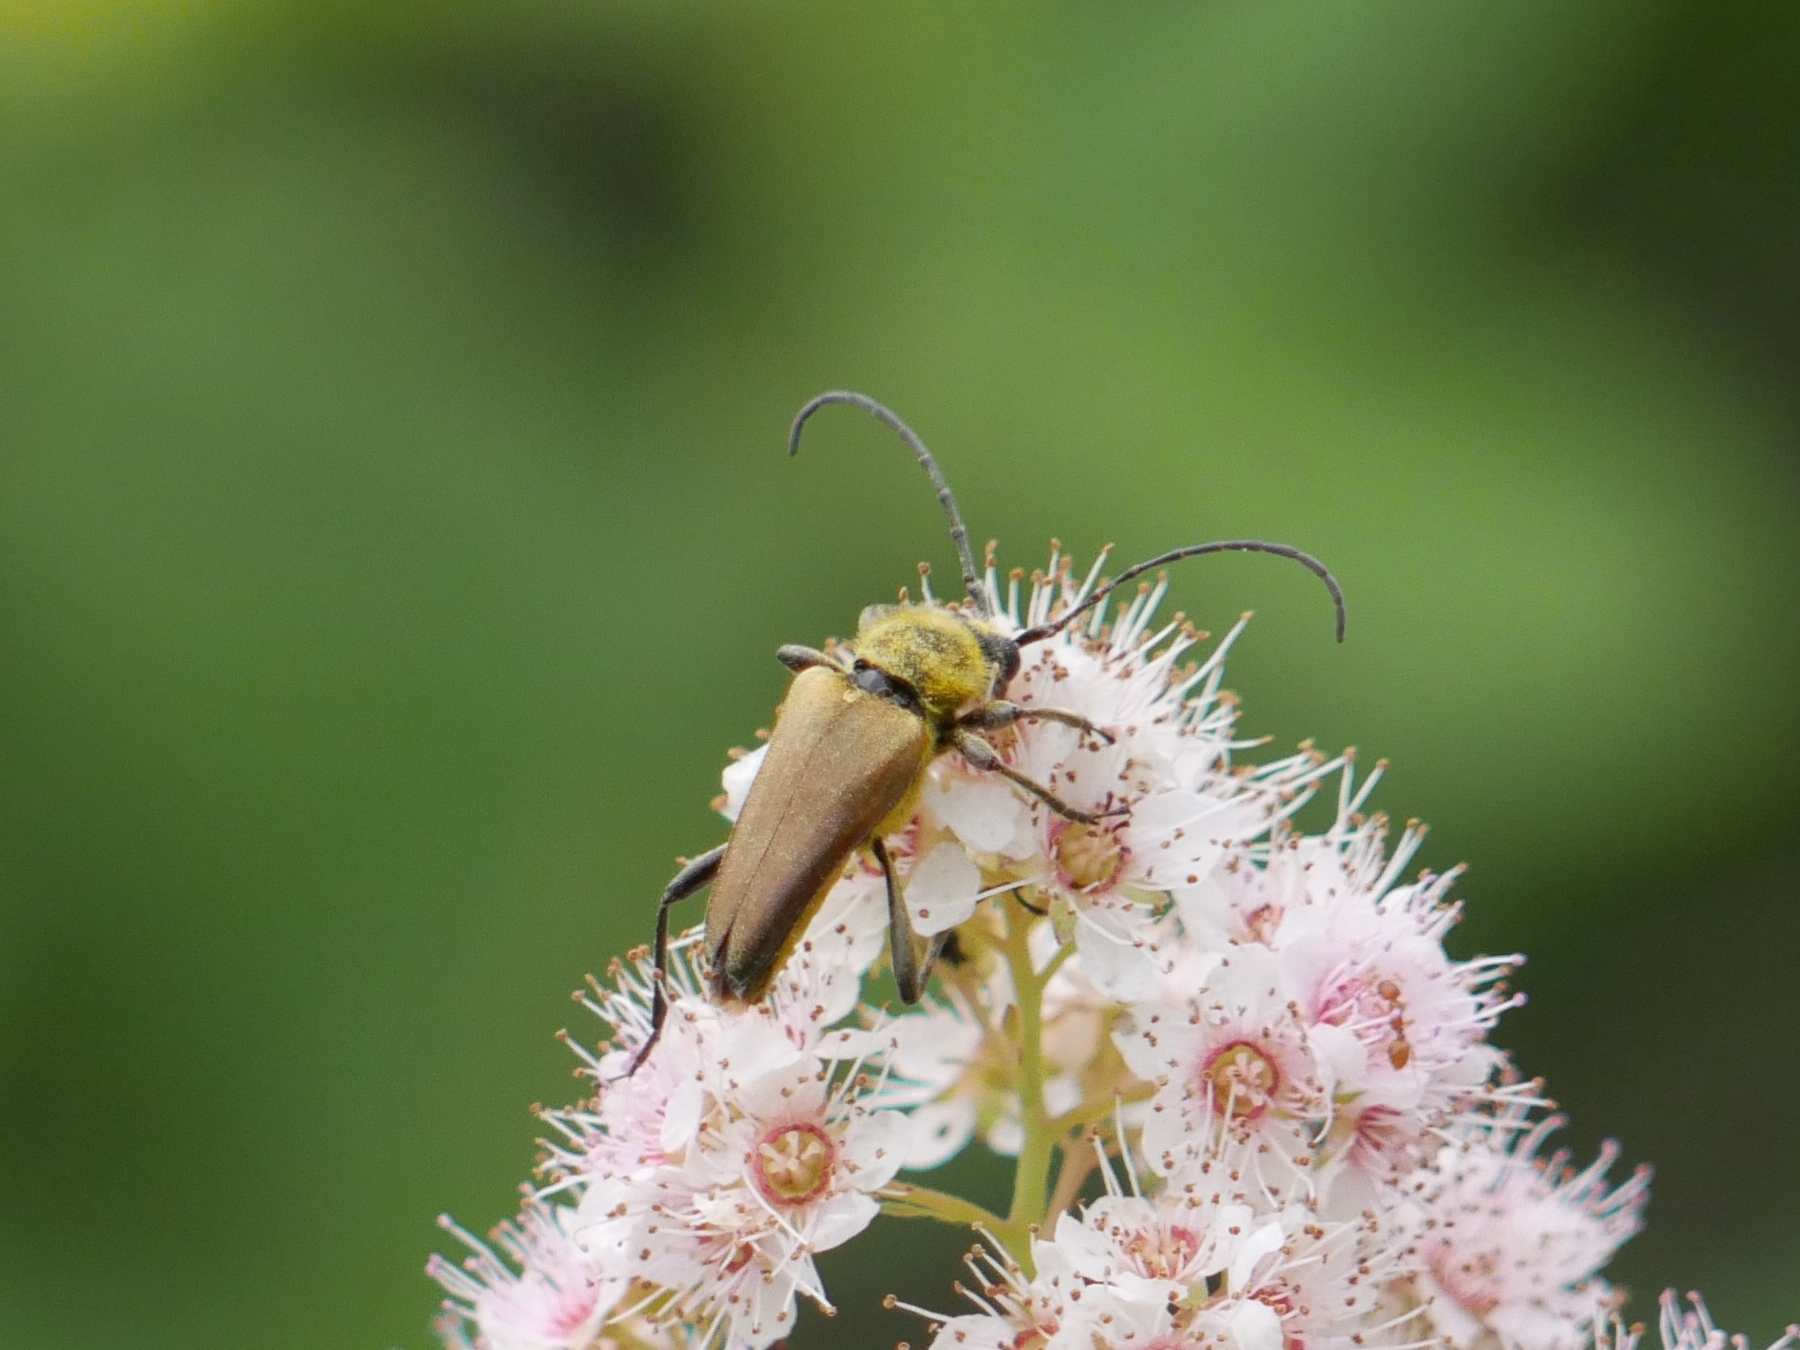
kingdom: Animalia
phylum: Arthropoda
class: Insecta
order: Coleoptera
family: Cerambycidae
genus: Cosmosalia
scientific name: Cosmosalia chrysocoma
